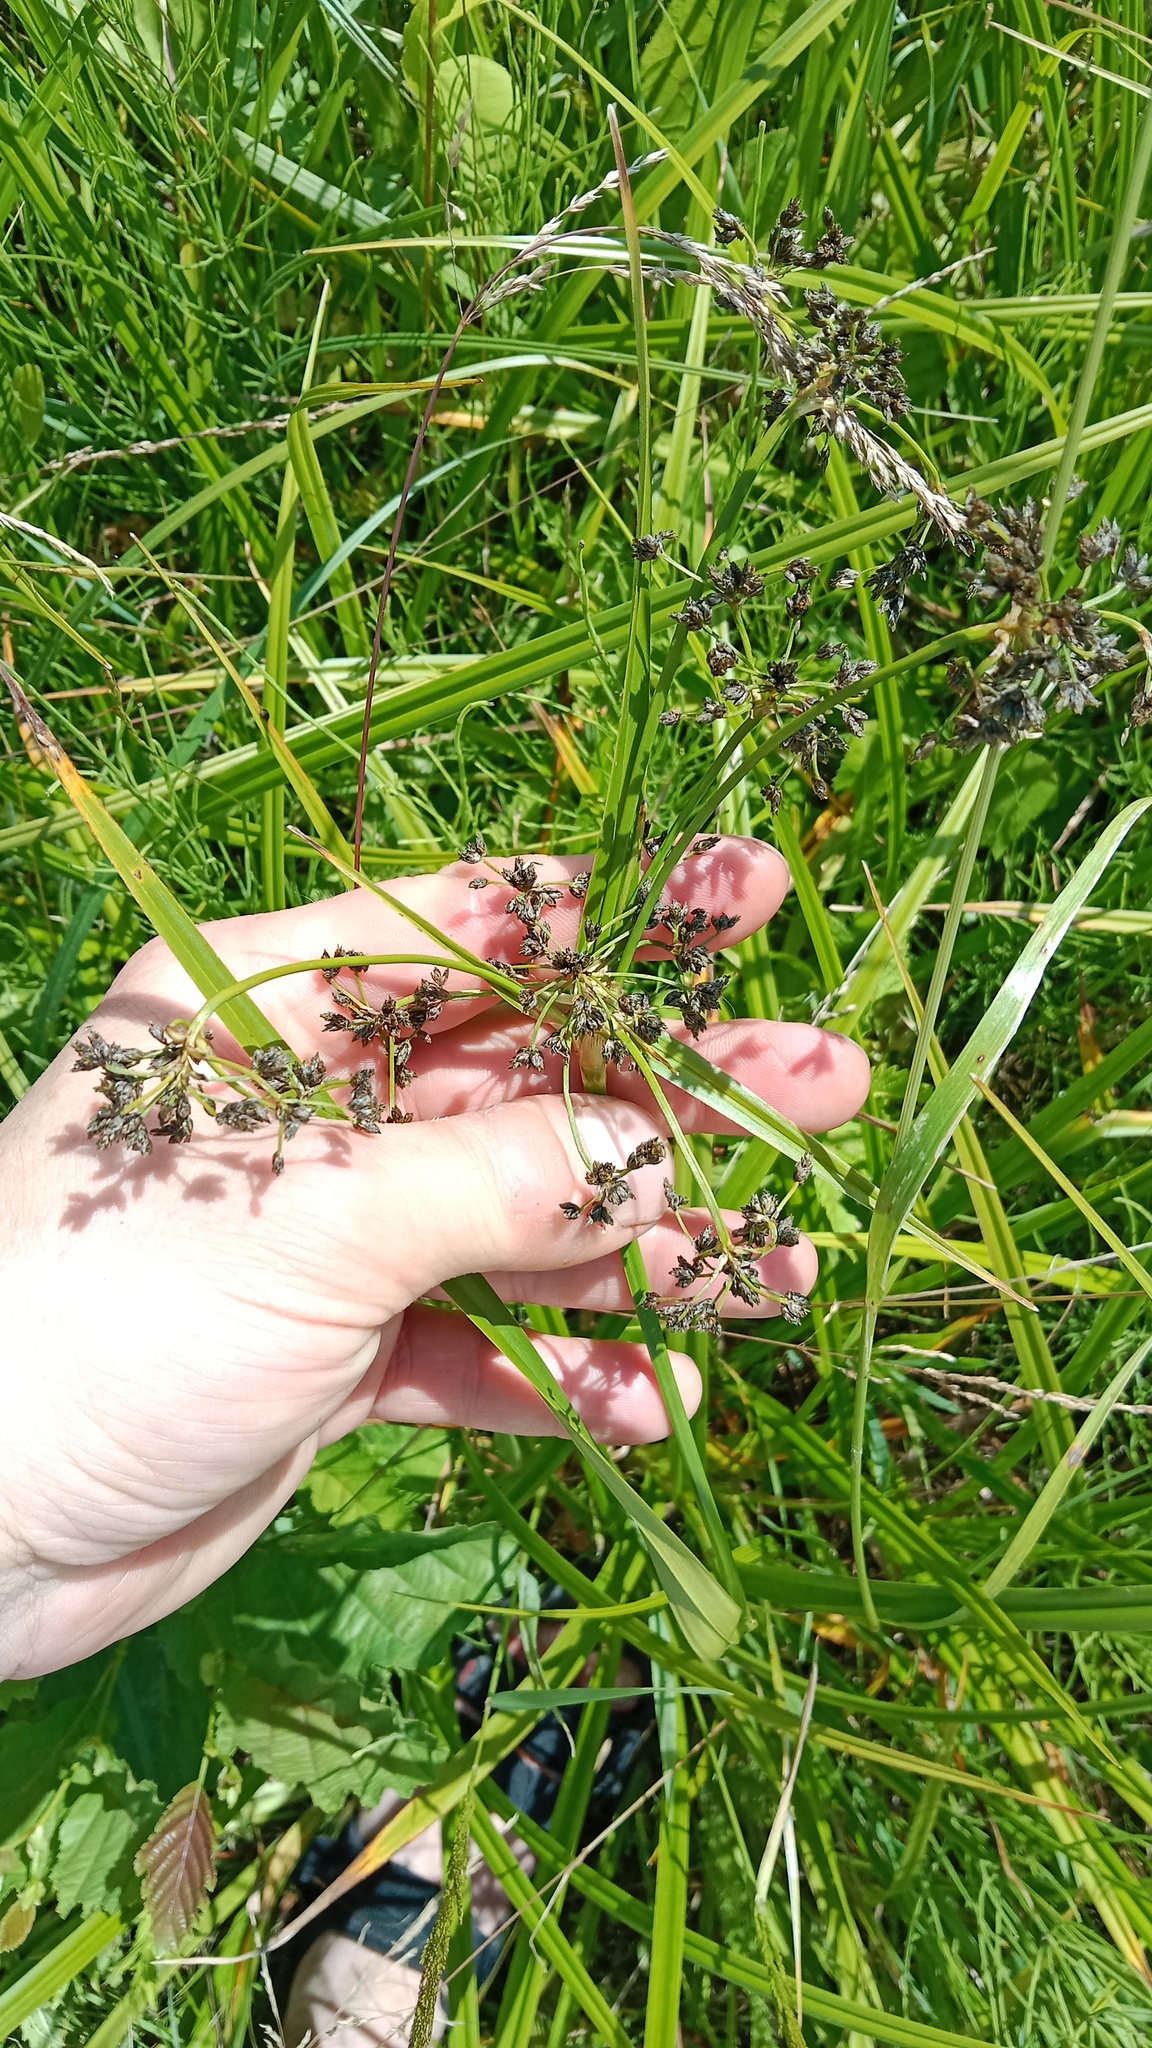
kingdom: Plantae
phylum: Tracheophyta
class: Liliopsida
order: Poales
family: Cyperaceae
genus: Scirpus
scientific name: Scirpus sylvaticus
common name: Wood club-rush
